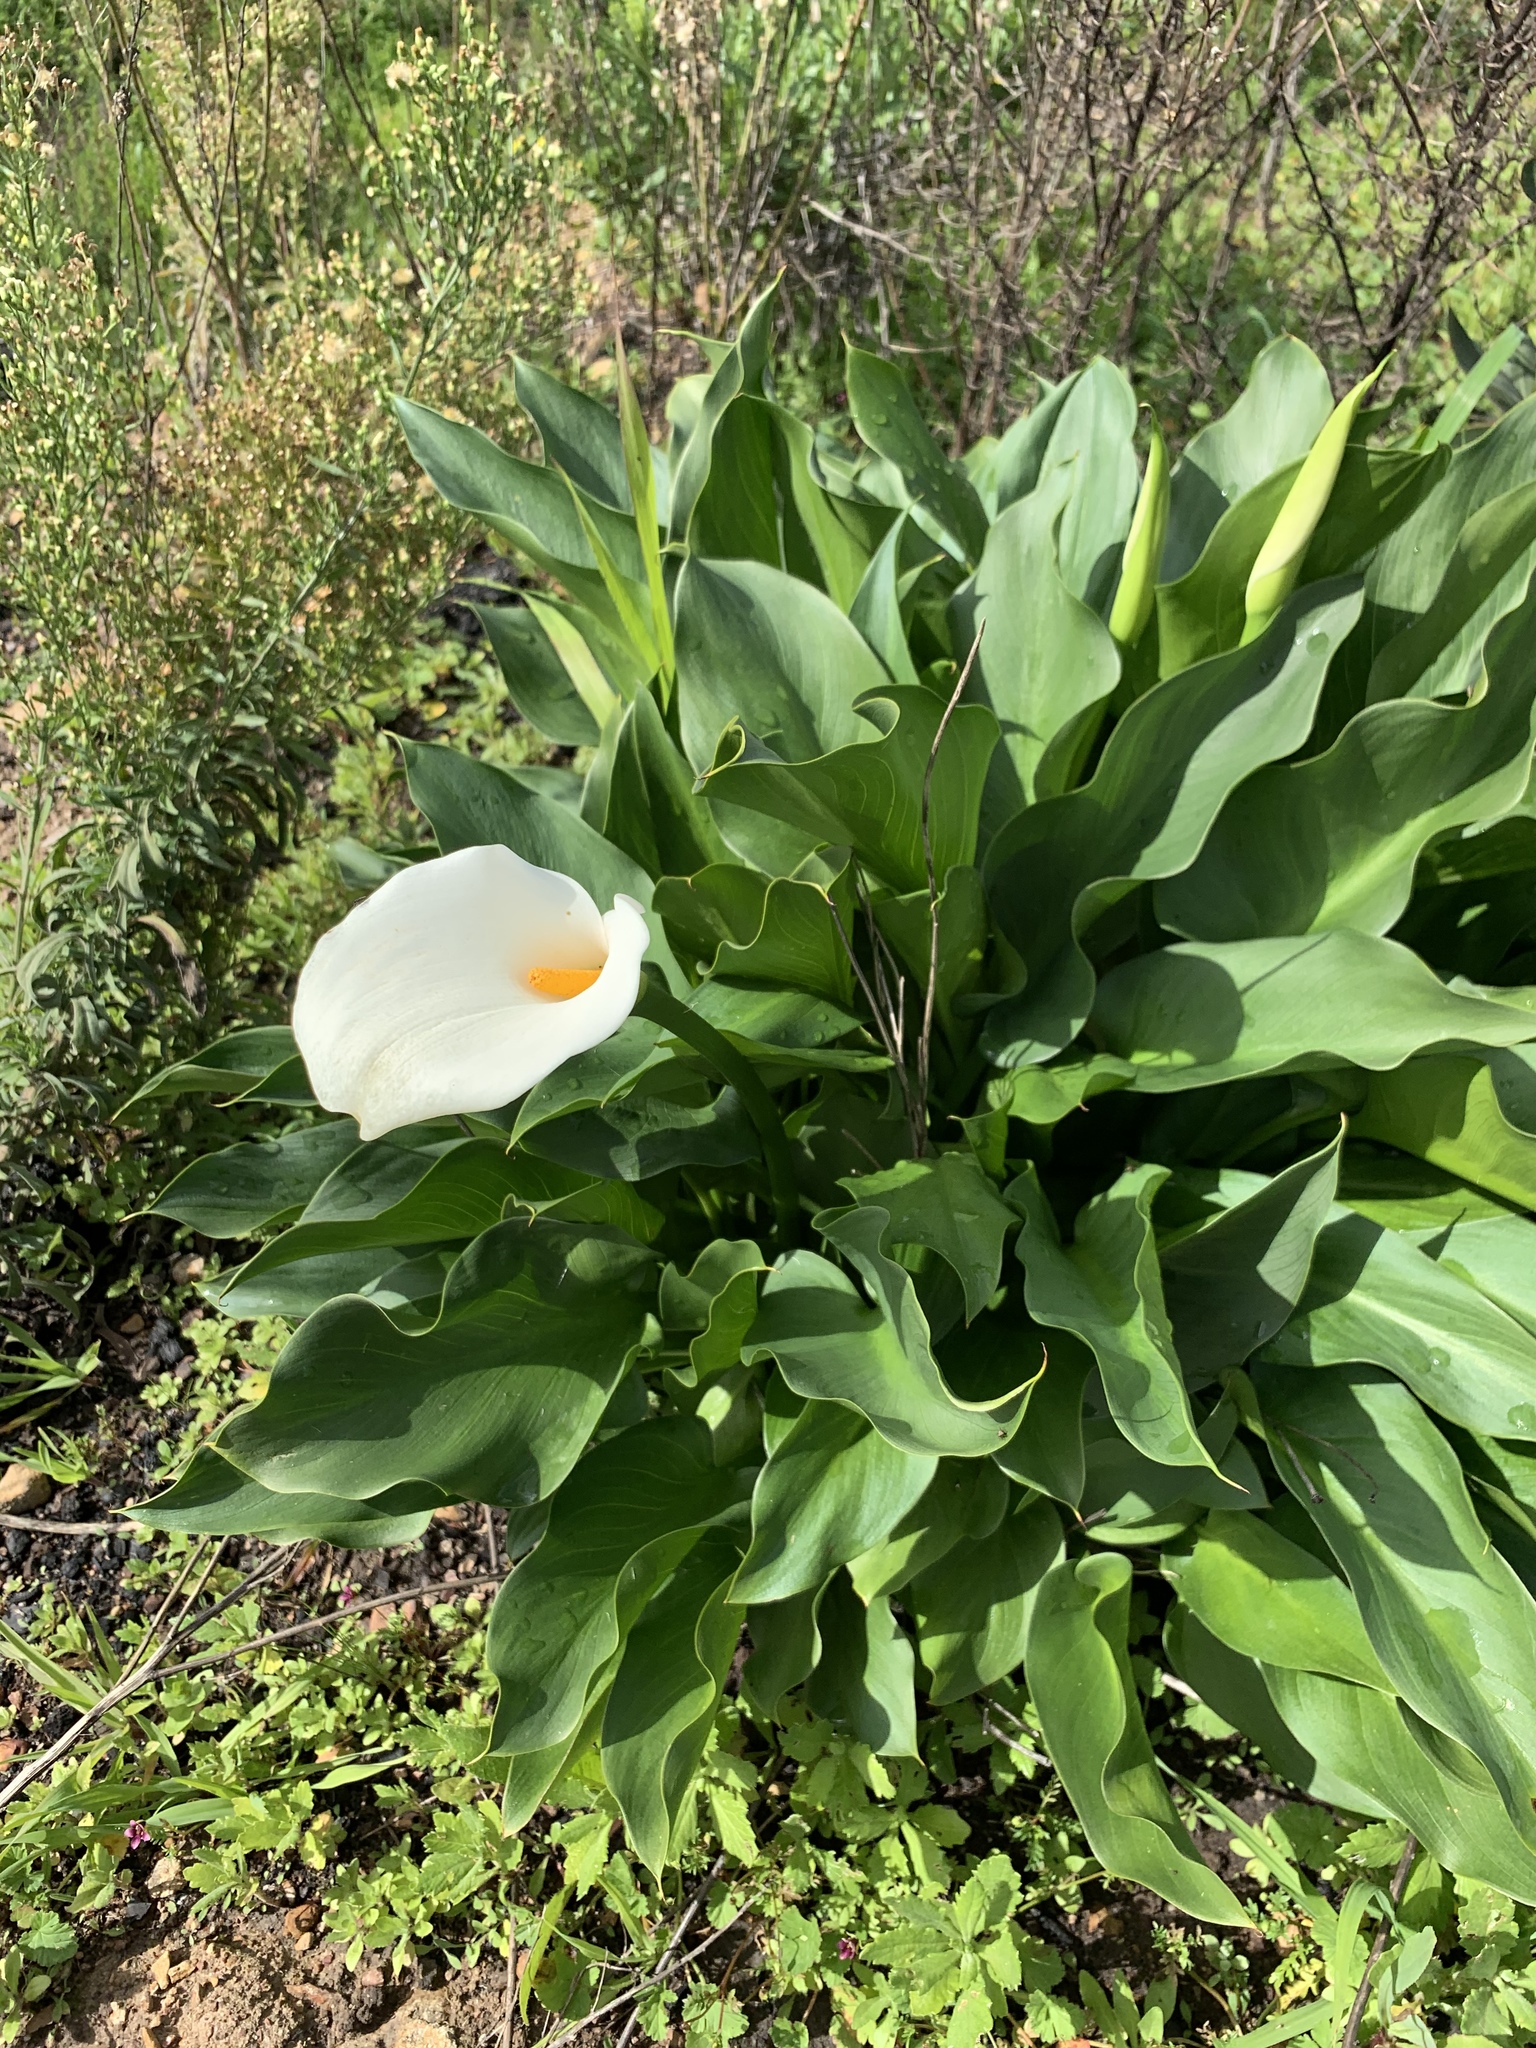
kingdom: Plantae
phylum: Tracheophyta
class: Liliopsida
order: Alismatales
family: Araceae
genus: Zantedeschia
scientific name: Zantedeschia aethiopica
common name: Altar-lily
